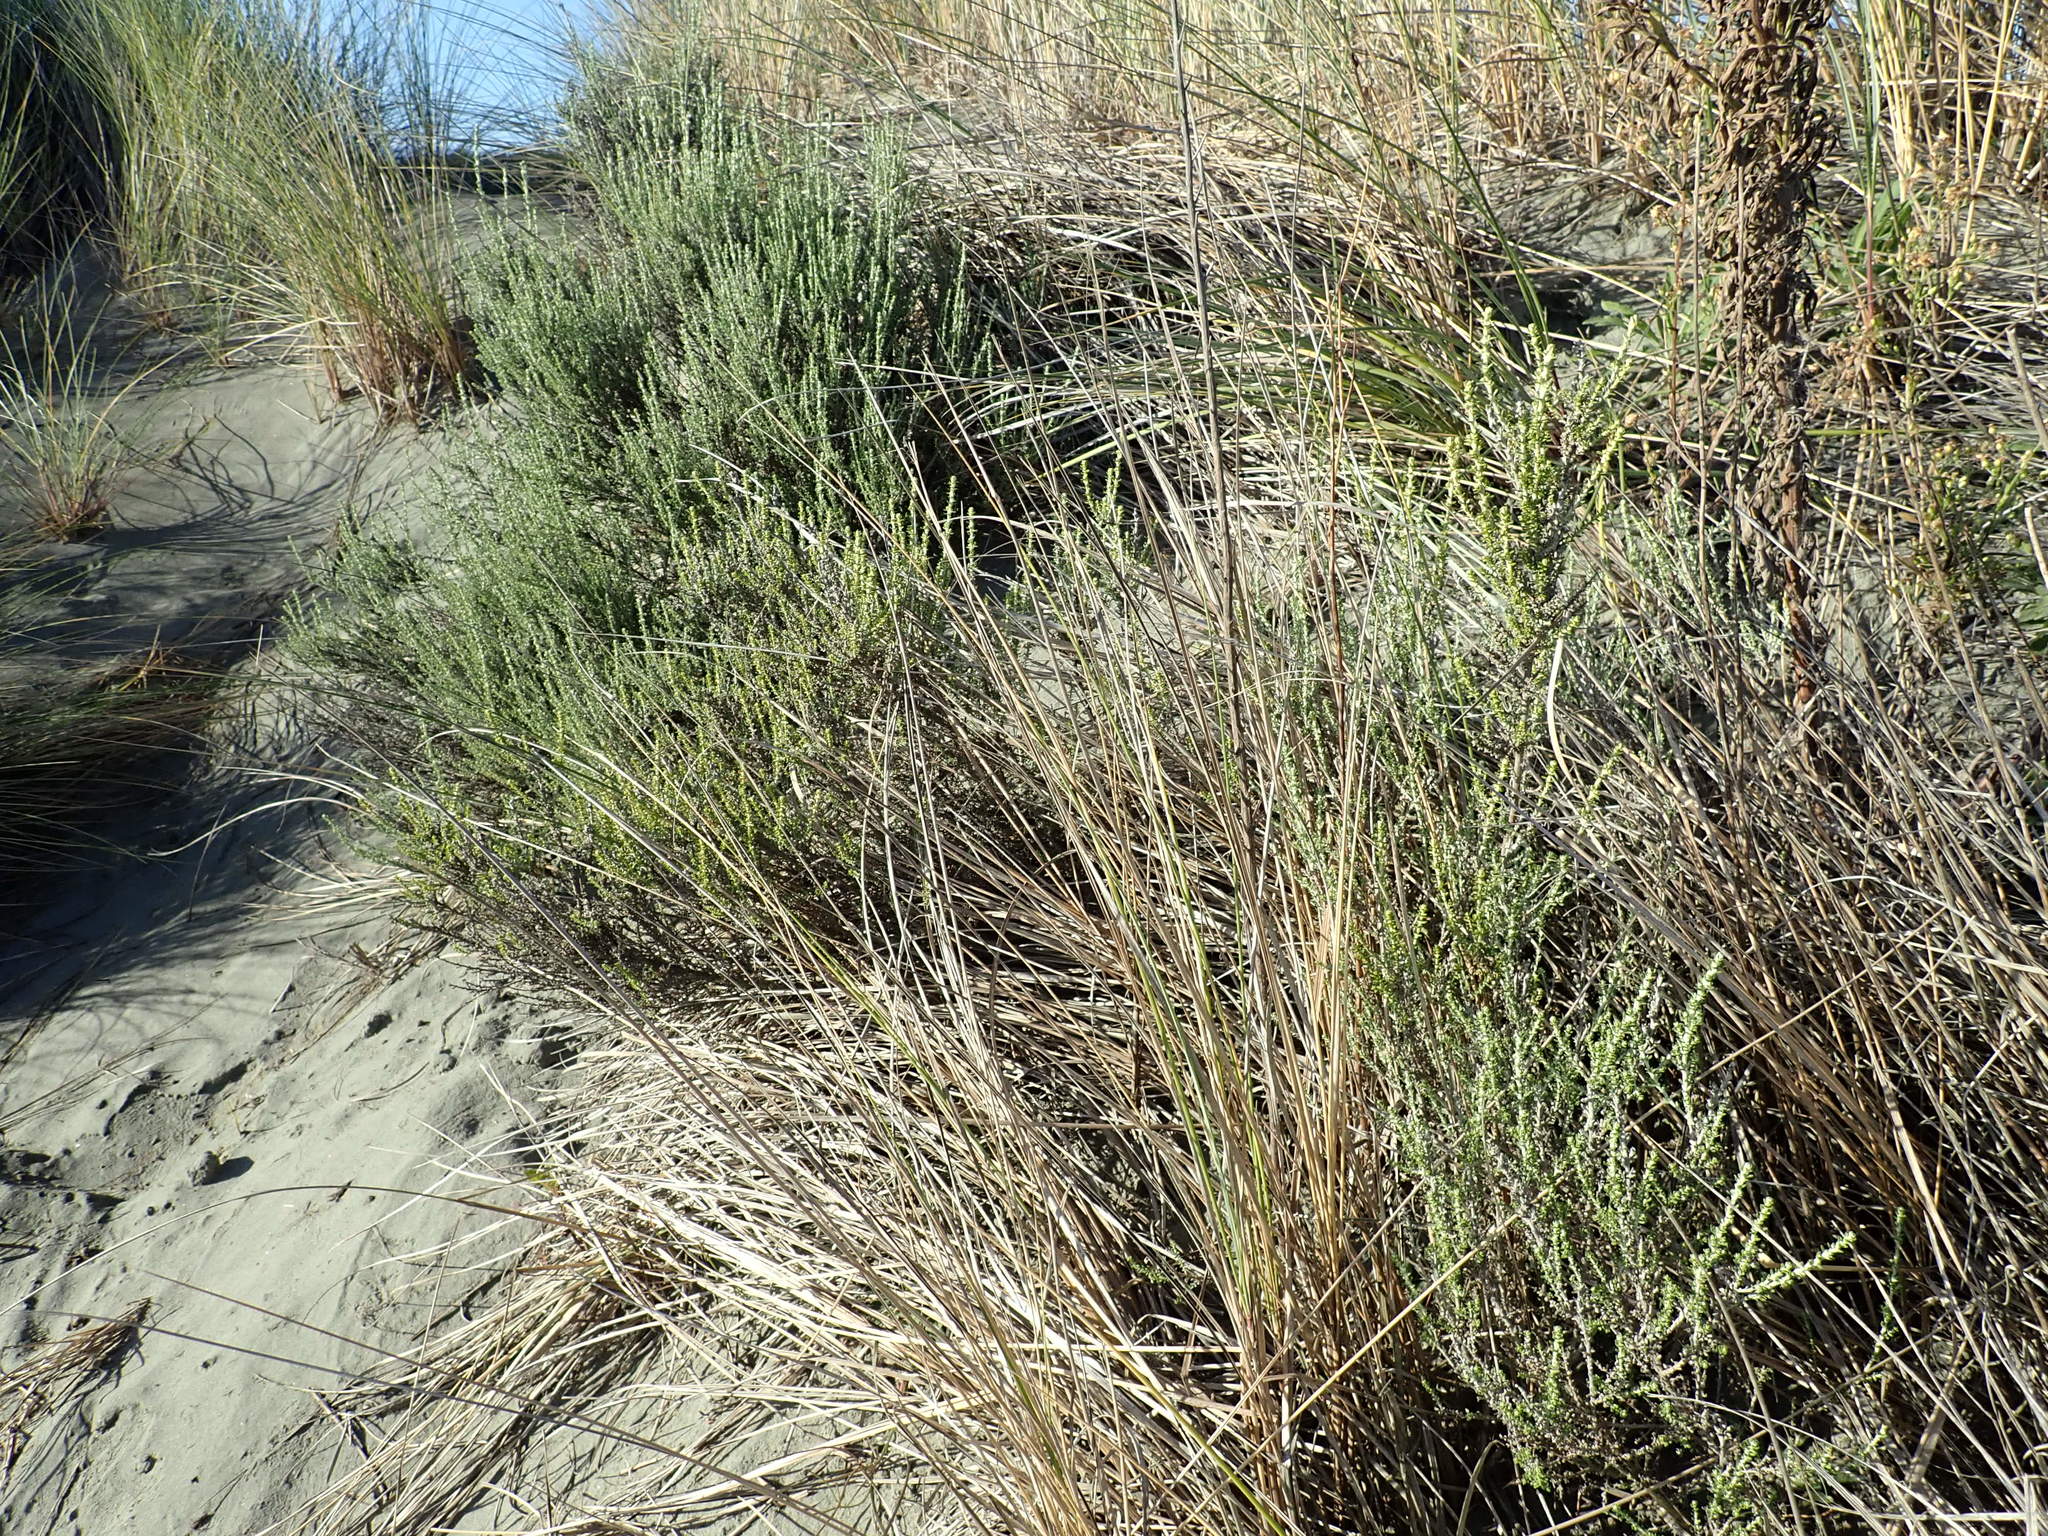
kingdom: Plantae
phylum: Tracheophyta
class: Magnoliopsida
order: Asterales
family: Asteraceae
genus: Ozothamnus
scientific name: Ozothamnus leptophyllus
